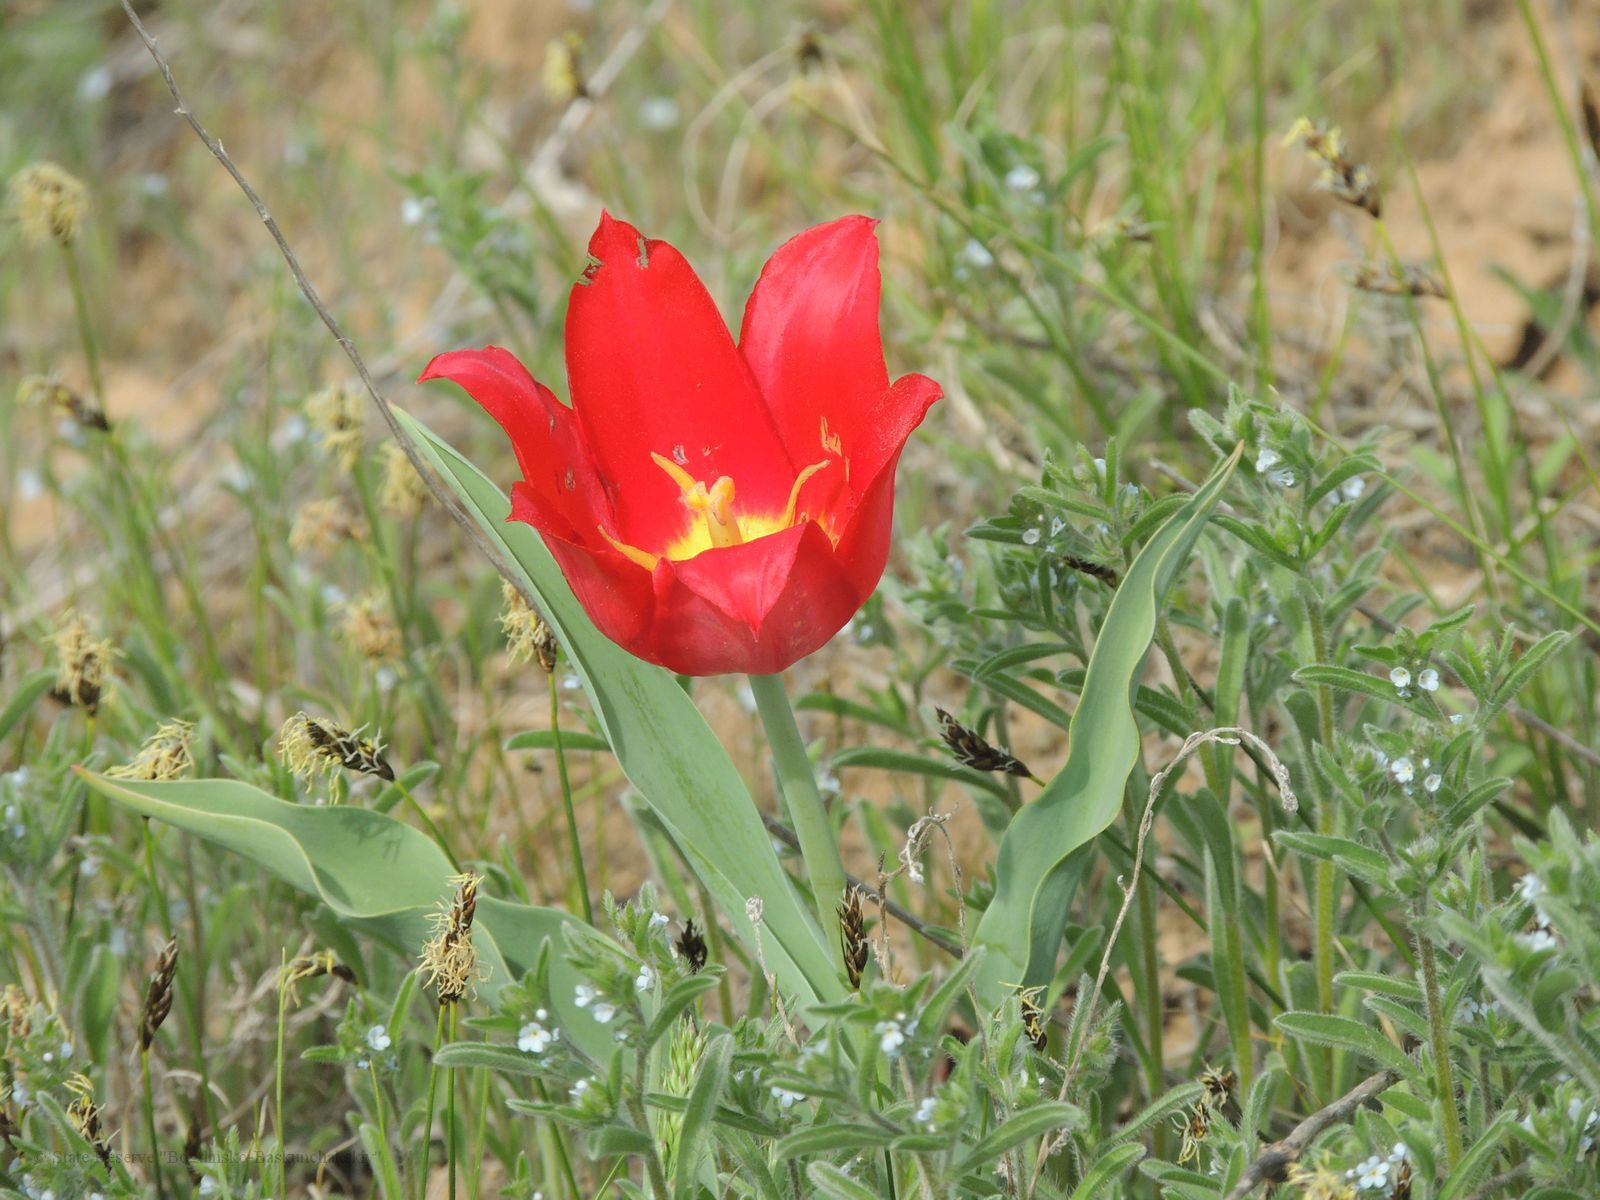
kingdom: Plantae
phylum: Tracheophyta
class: Liliopsida
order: Liliales
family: Liliaceae
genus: Tulipa
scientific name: Tulipa suaveolens
